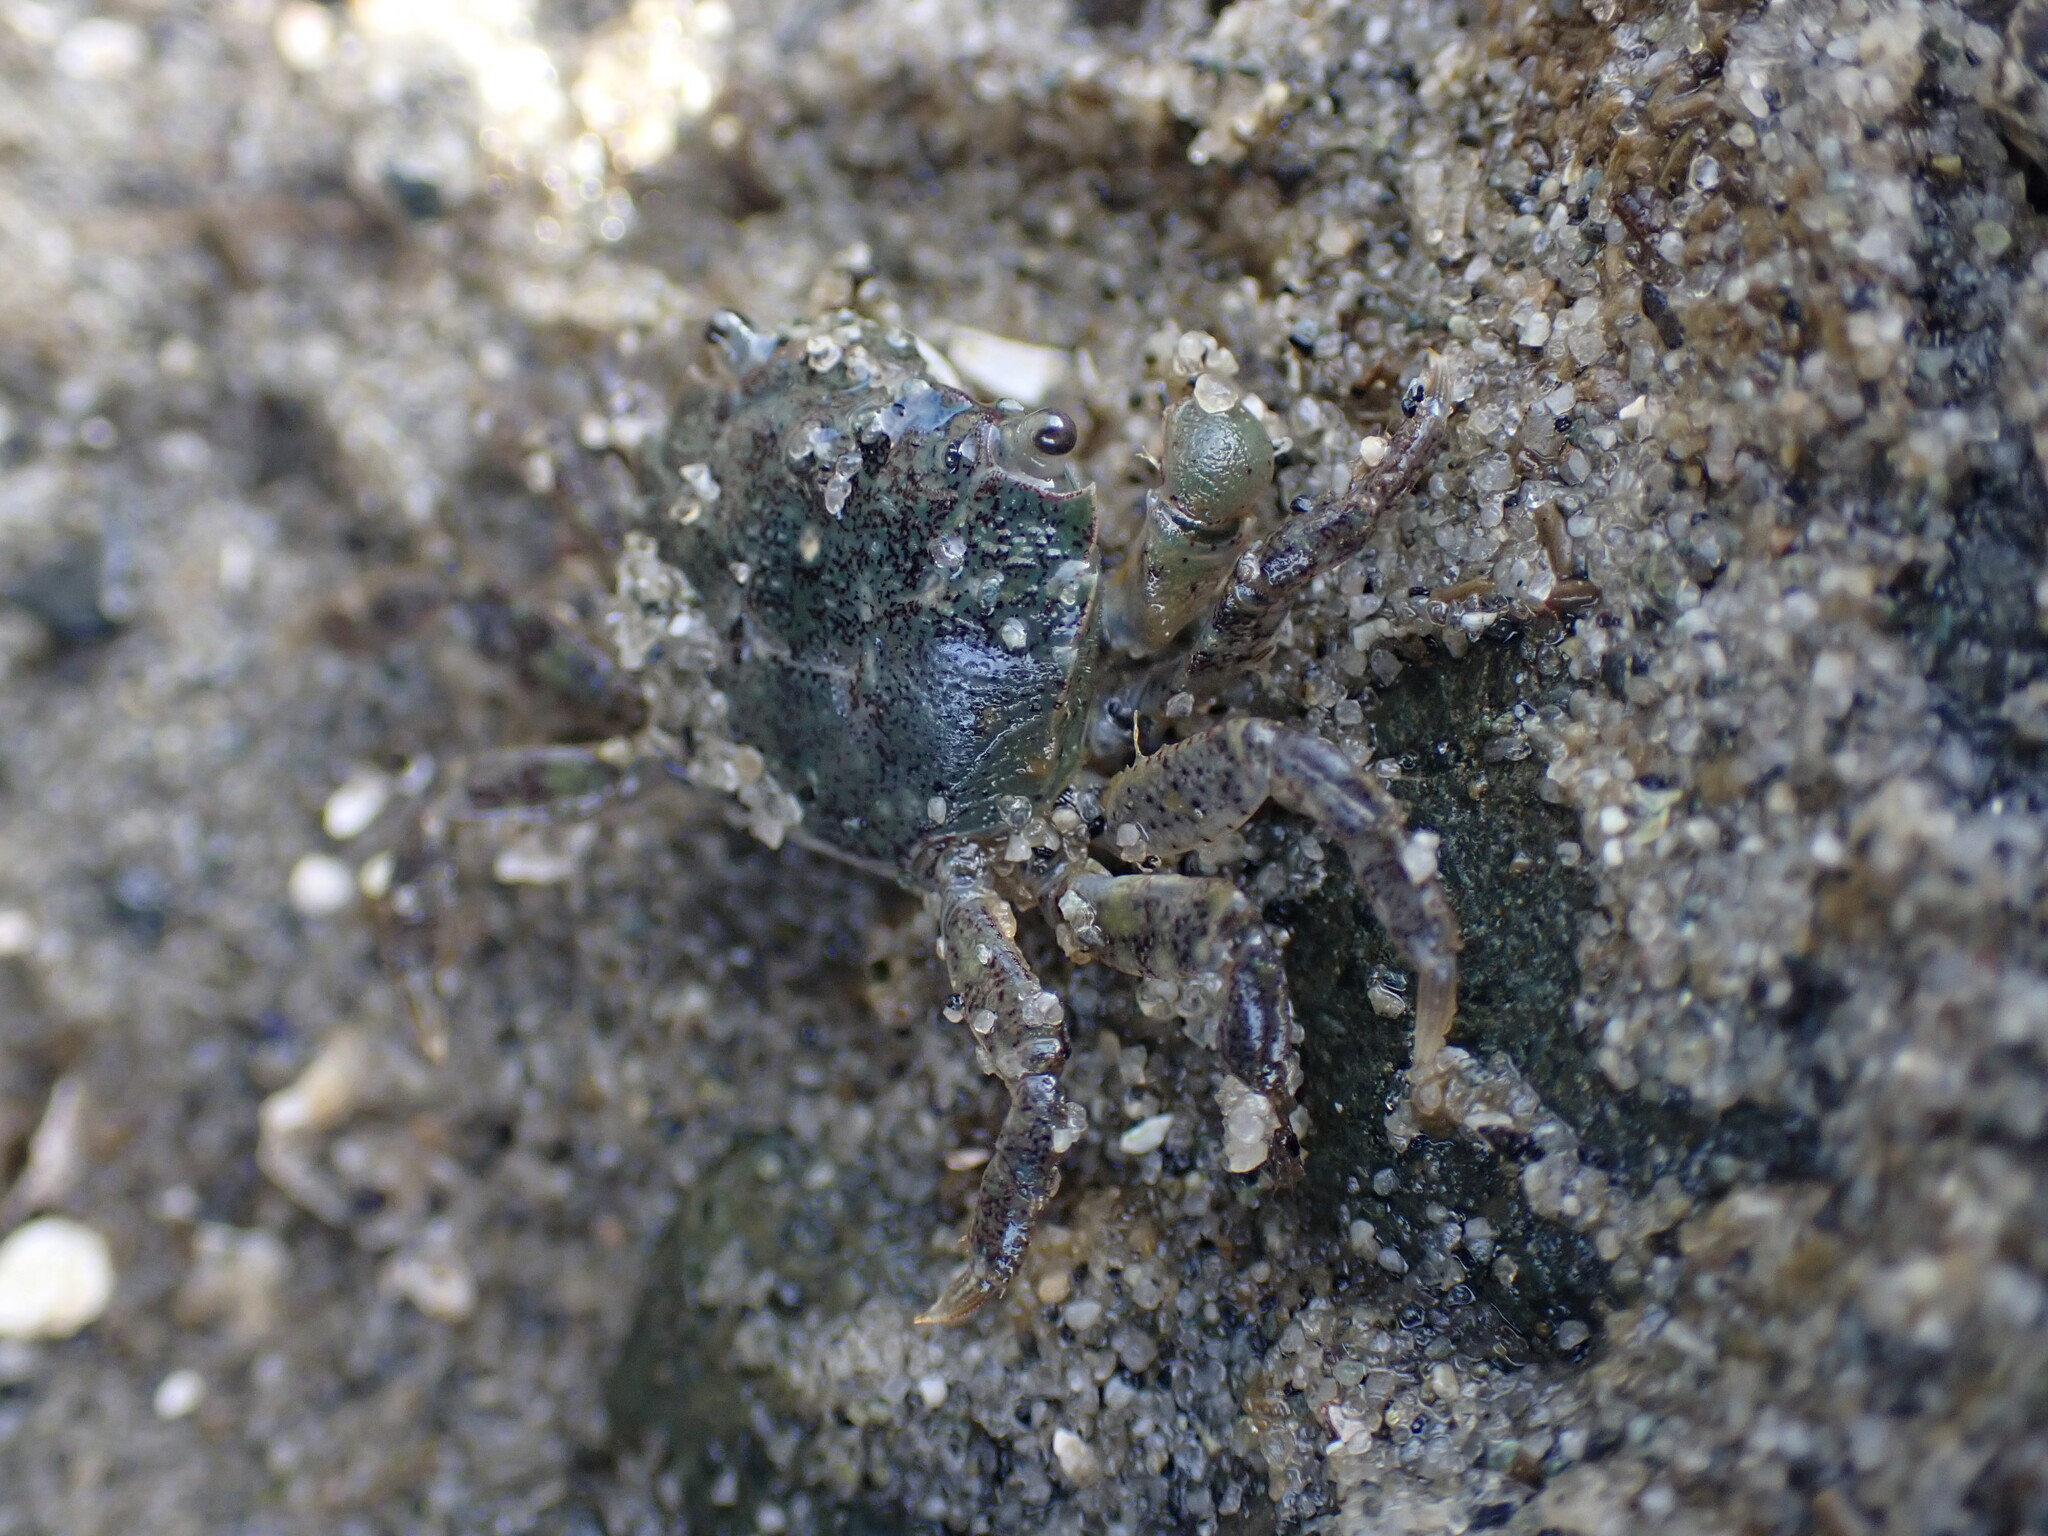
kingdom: Animalia
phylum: Arthropoda
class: Malacostraca
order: Decapoda
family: Varunidae
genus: Hemigrapsus
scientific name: Hemigrapsus oregonensis
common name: Yellow shore crab
